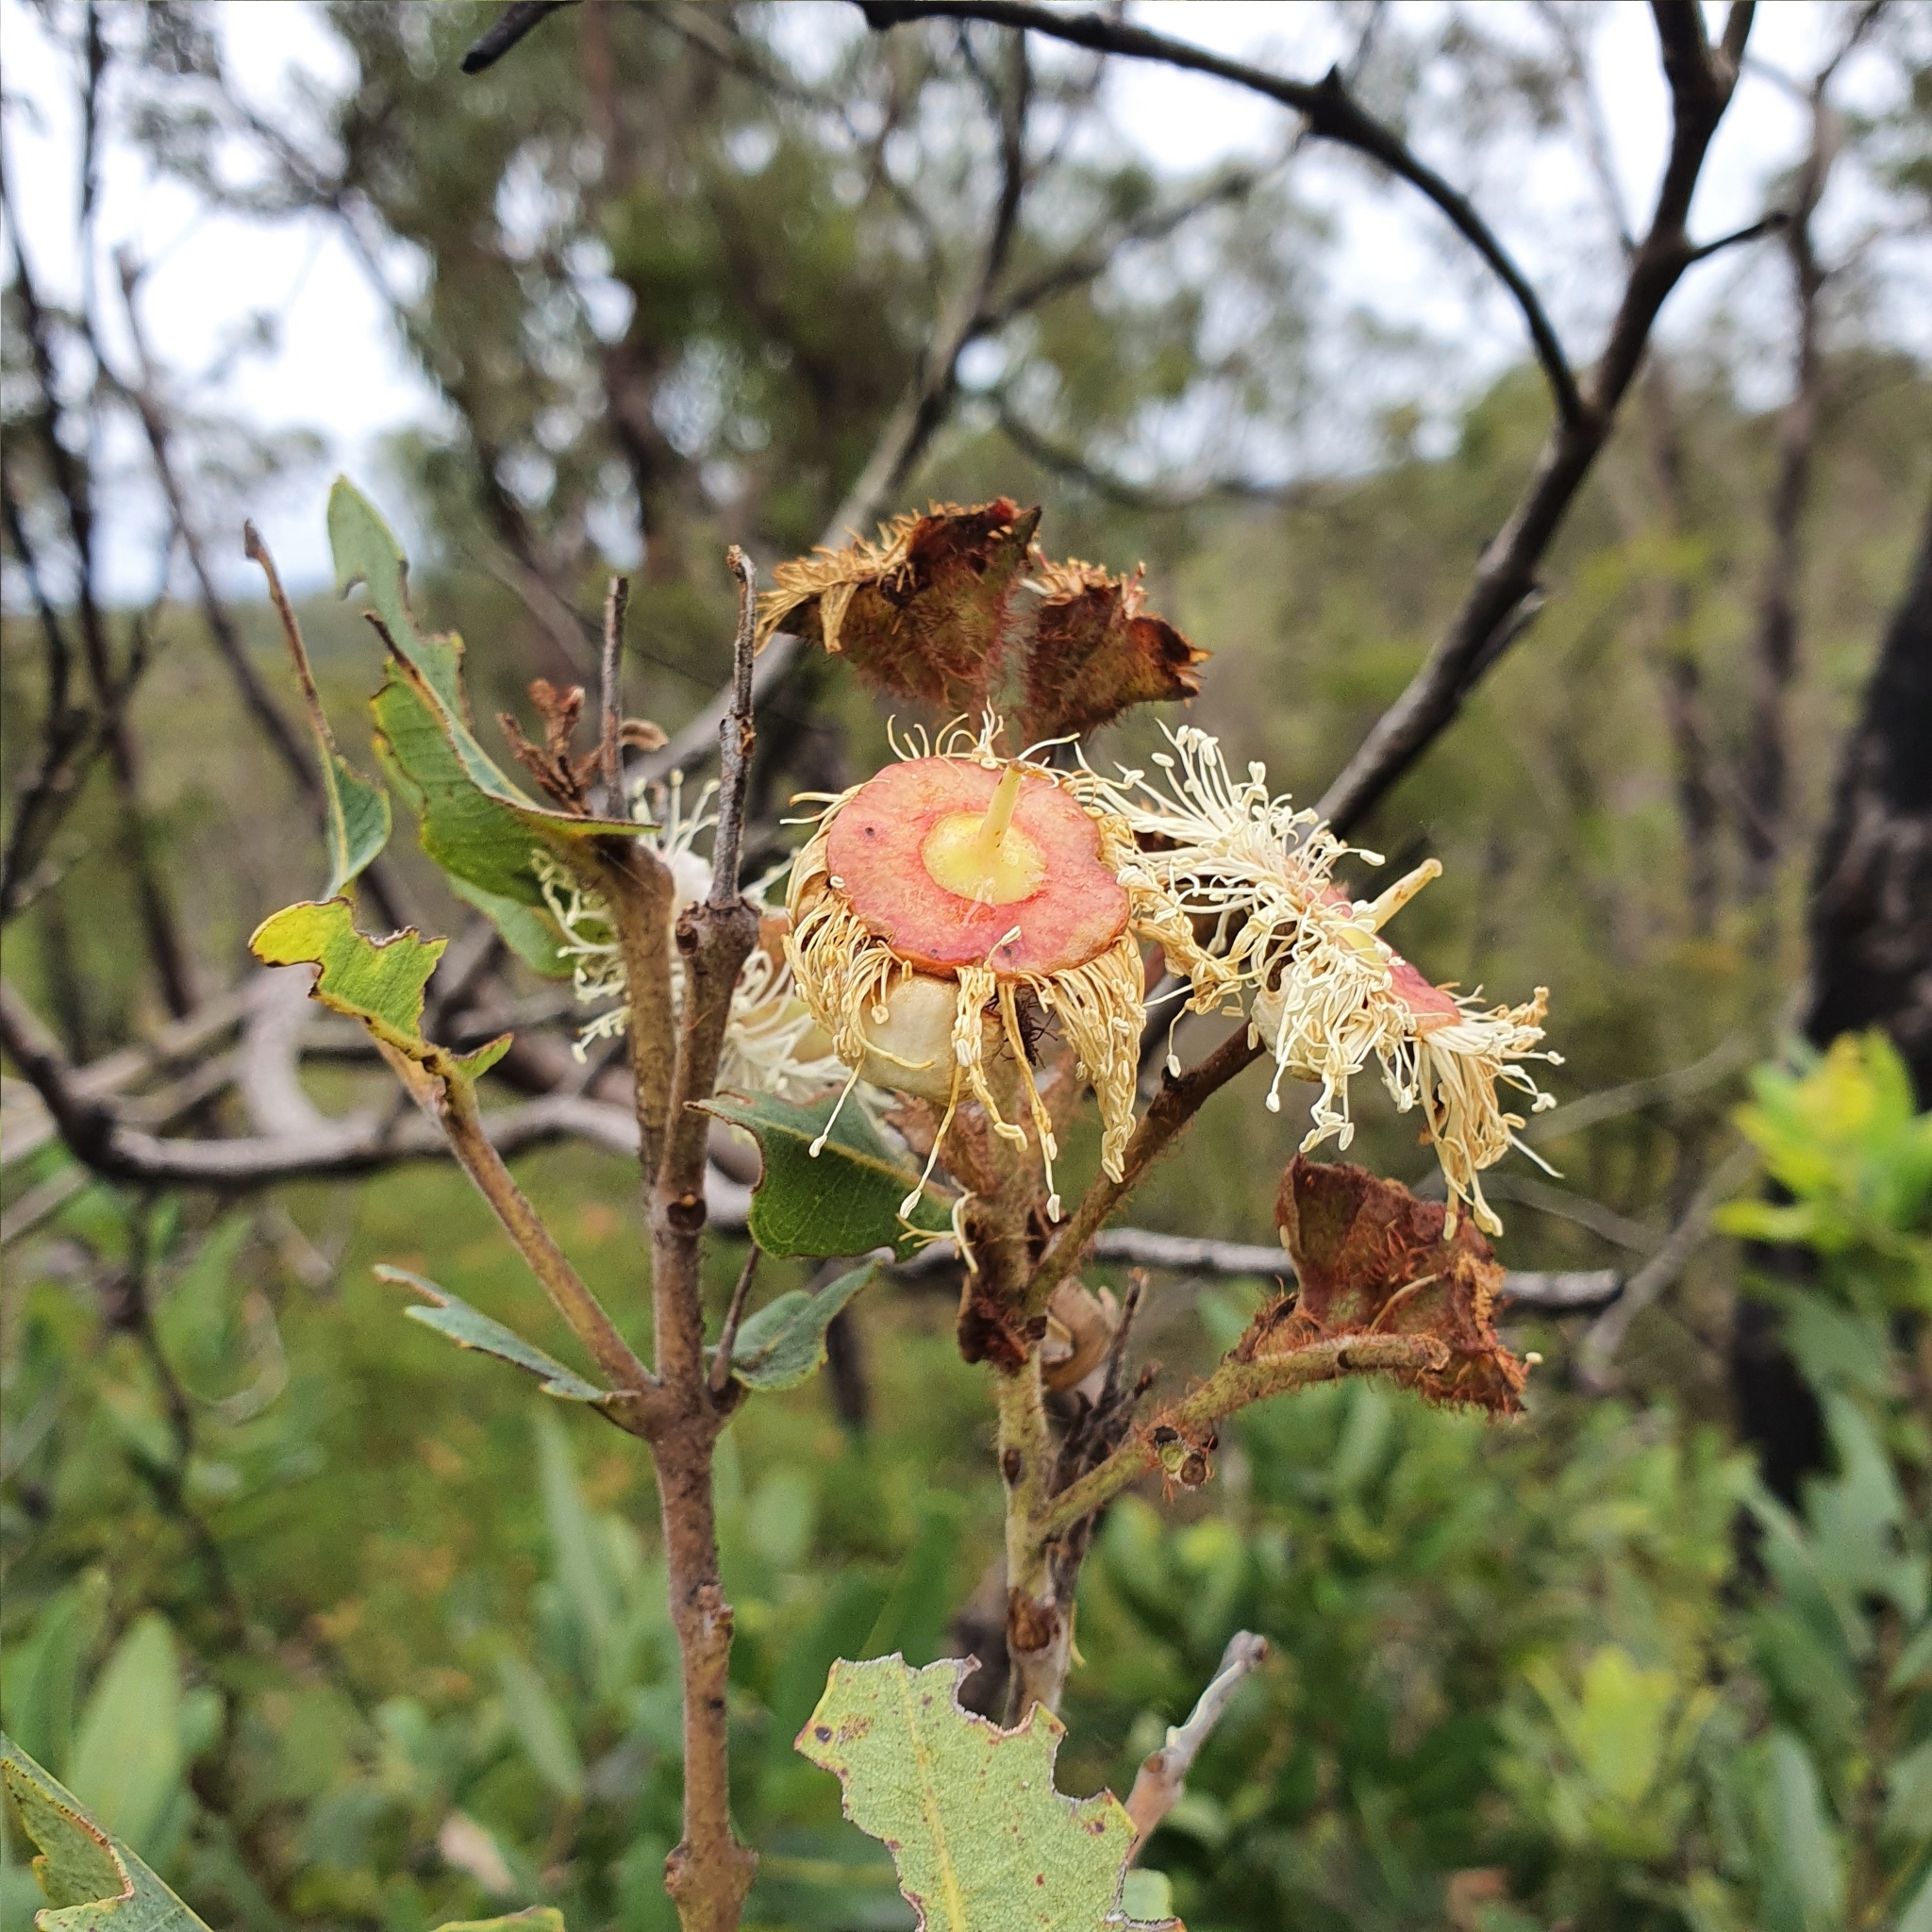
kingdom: Plantae
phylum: Tracheophyta
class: Magnoliopsida
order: Myrtales
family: Myrtaceae
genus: Angophora
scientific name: Angophora hispida
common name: Dwarf-apple
